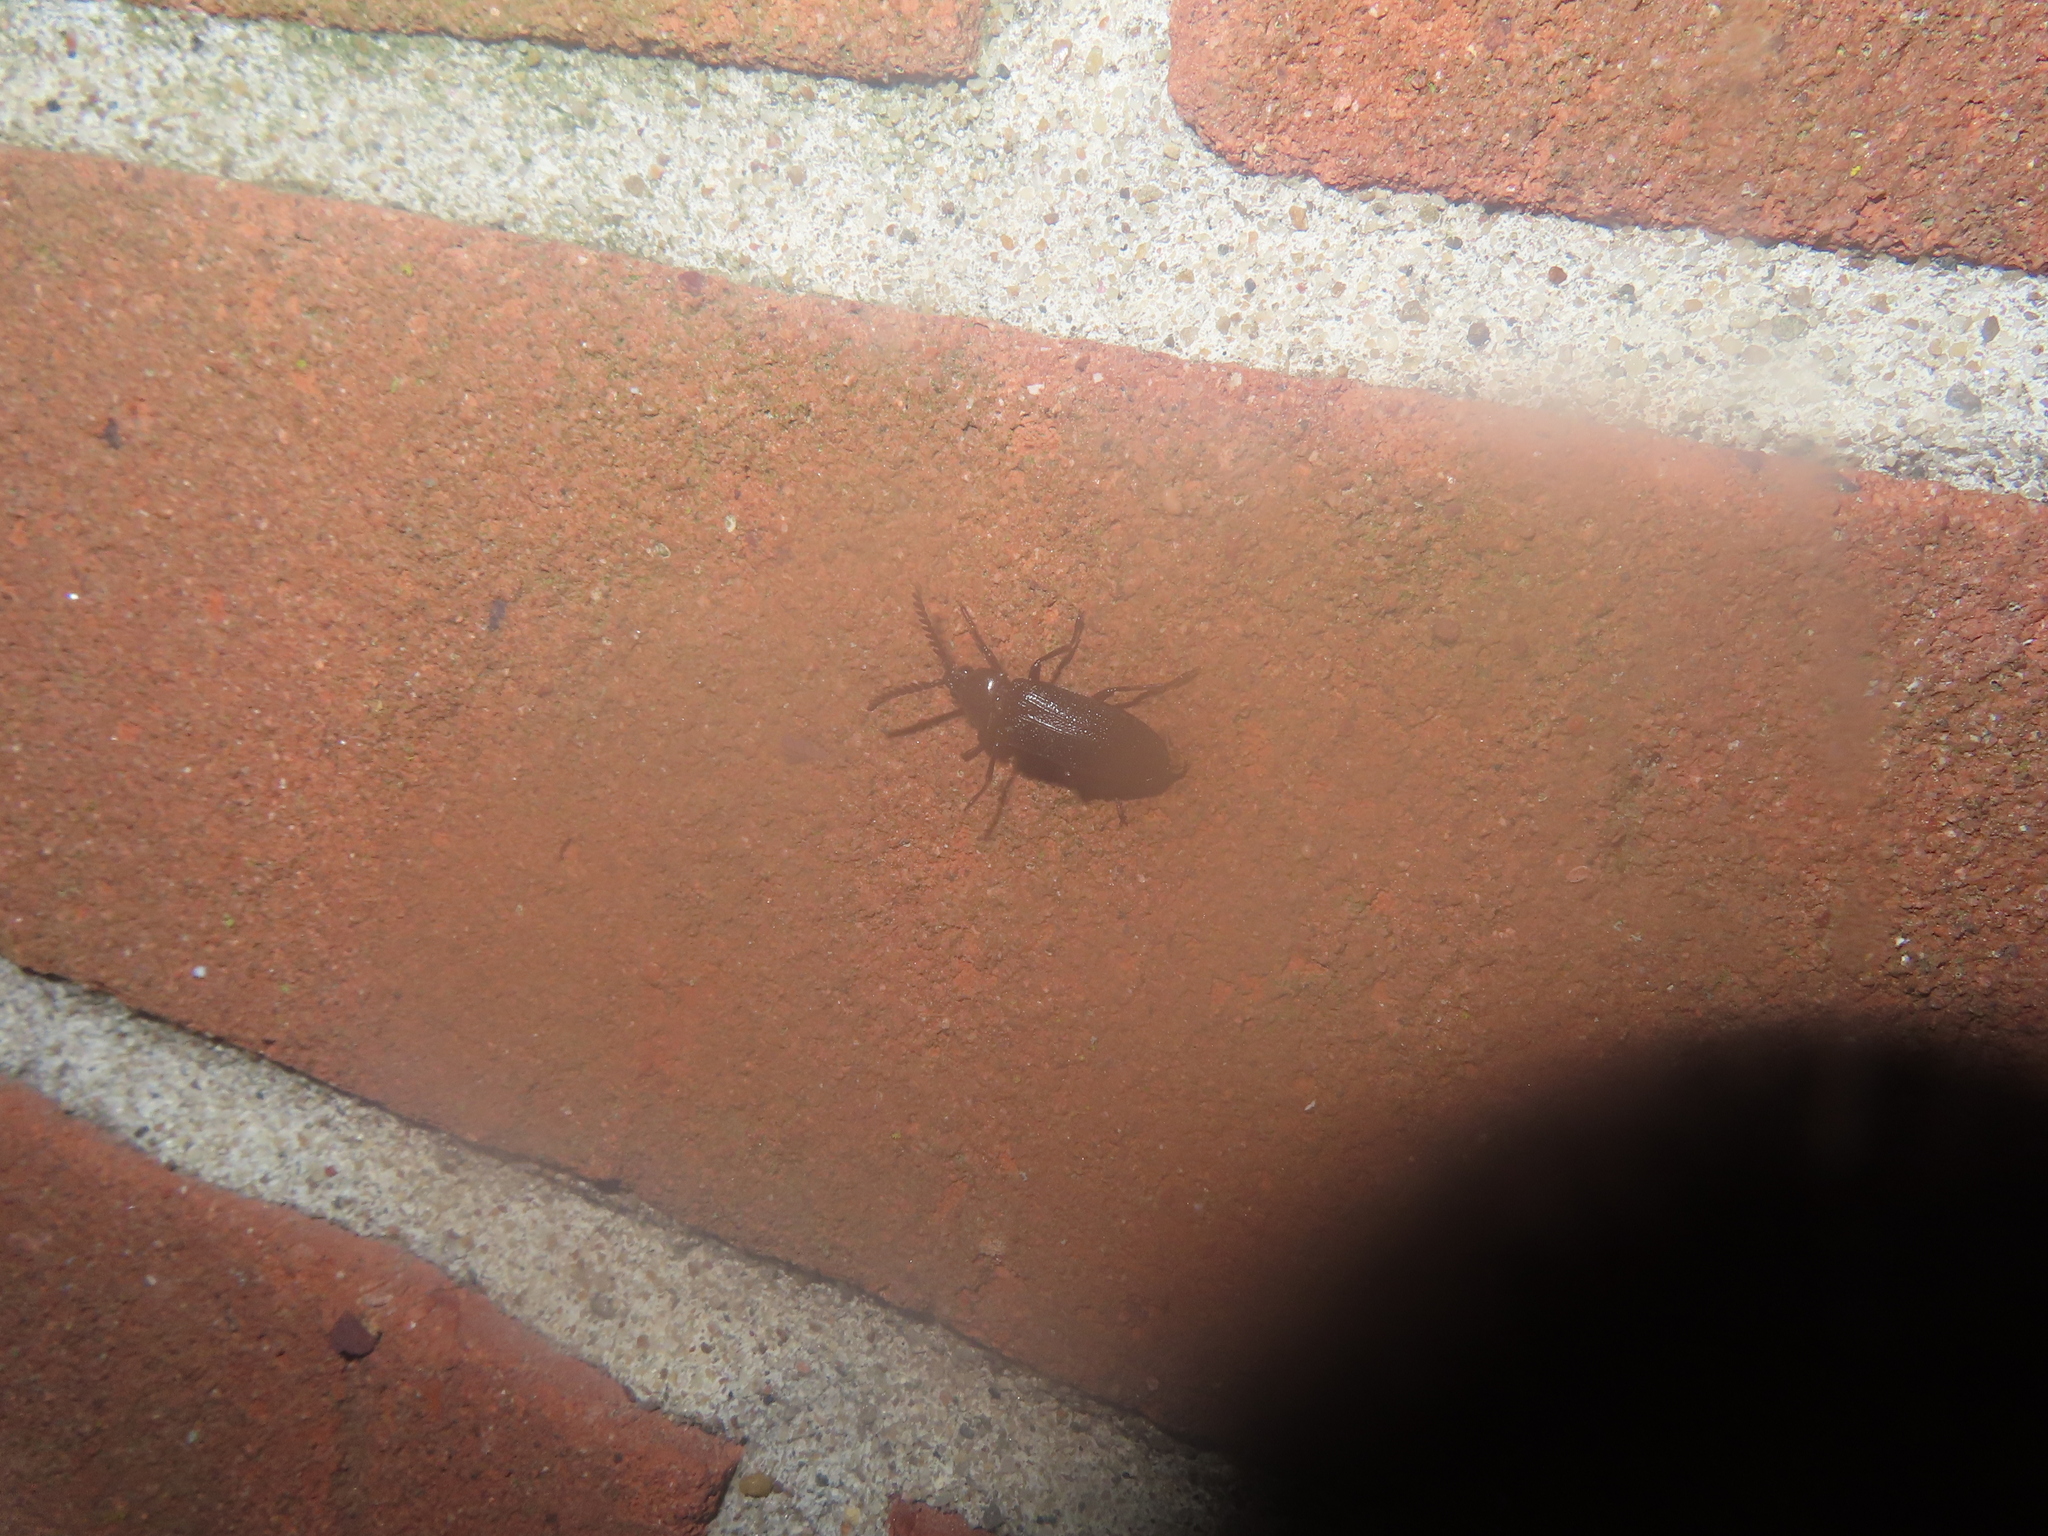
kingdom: Animalia
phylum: Arthropoda
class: Insecta
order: Coleoptera
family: Callirhipidae
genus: Zenoa
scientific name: Zenoa picea
